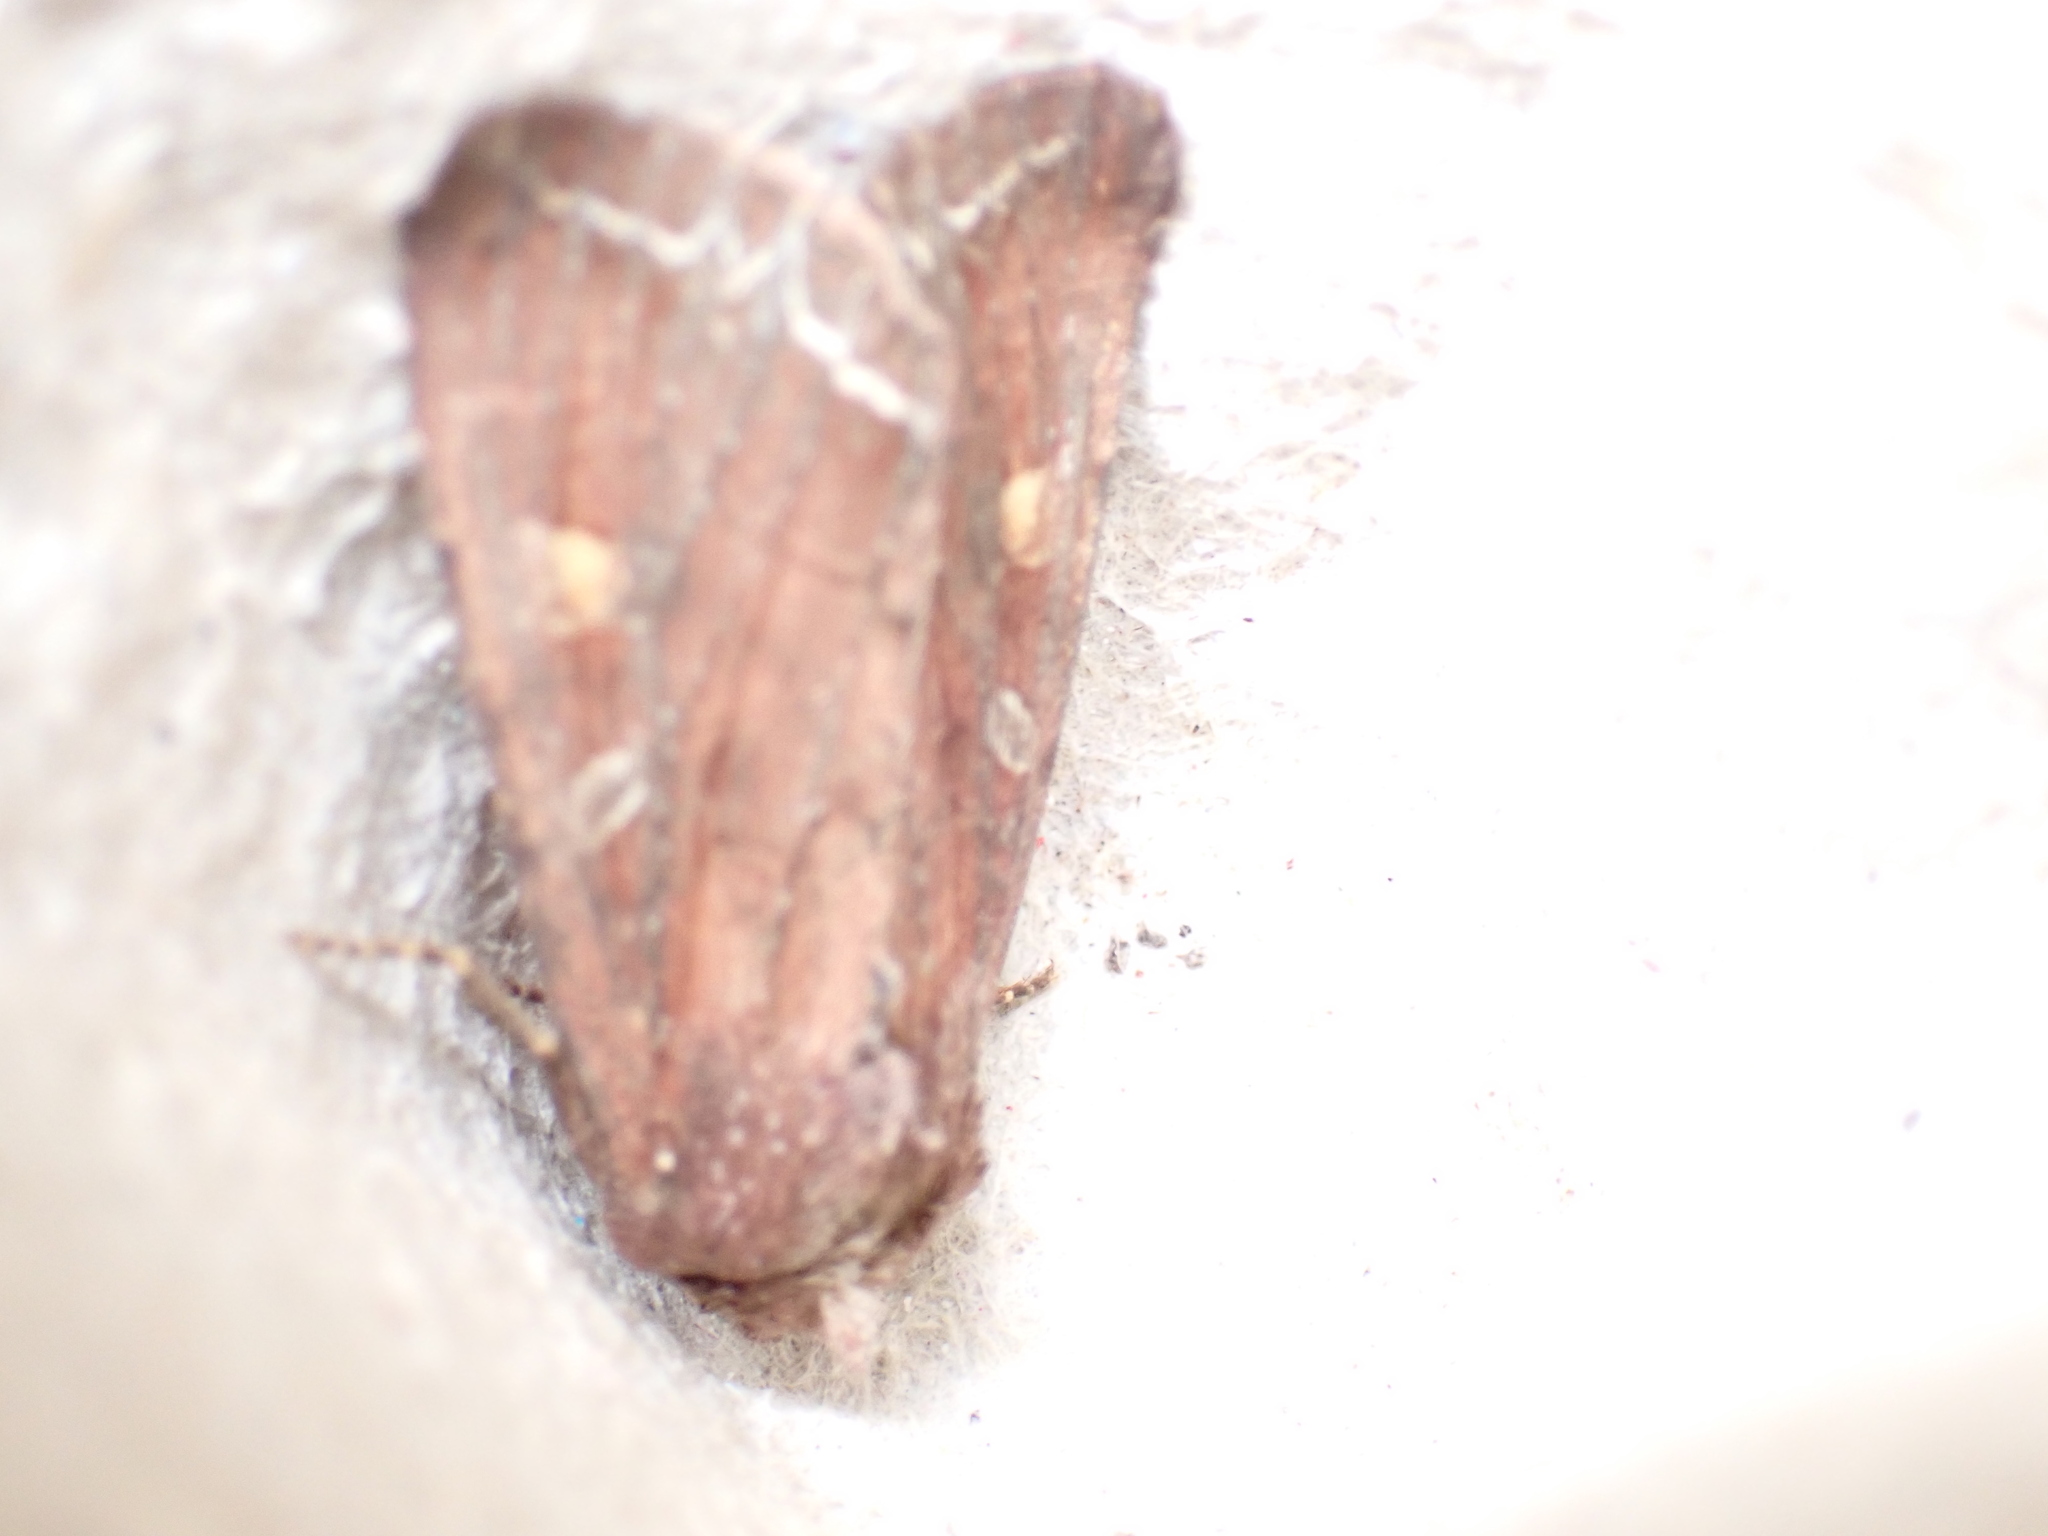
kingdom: Animalia
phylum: Arthropoda
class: Insecta
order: Lepidoptera
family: Noctuidae
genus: Lacanobia
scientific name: Lacanobia oleracea
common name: Bright-line brown-eye
